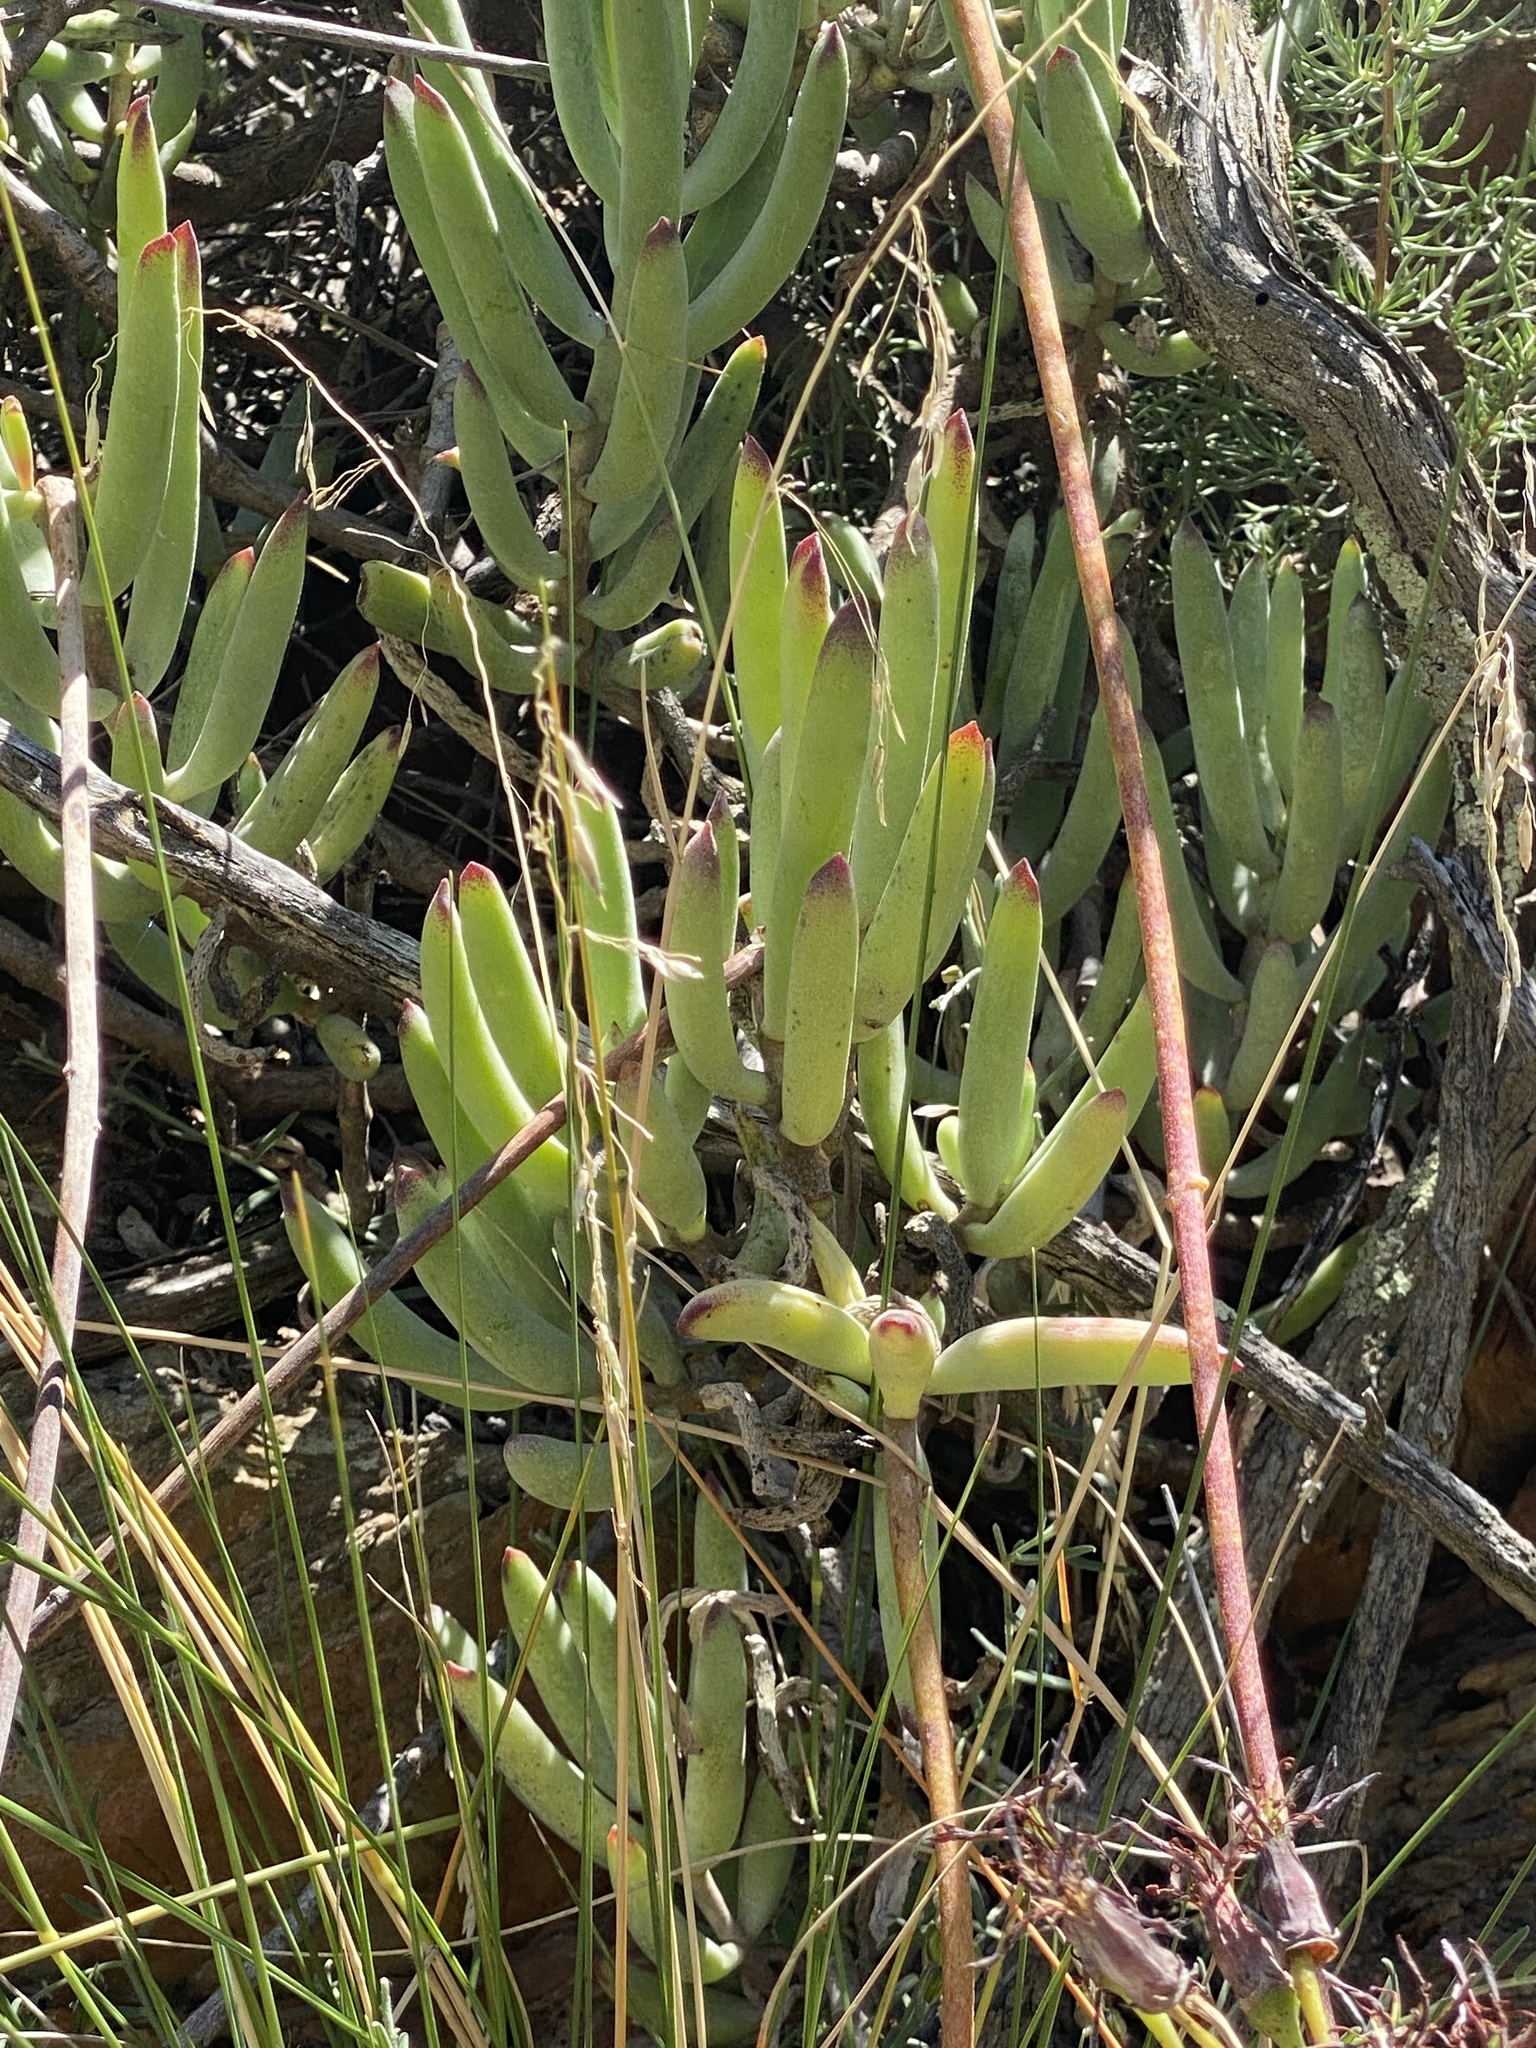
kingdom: Plantae
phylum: Tracheophyta
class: Magnoliopsida
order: Saxifragales
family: Crassulaceae
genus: Cotyledon
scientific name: Cotyledon orbiculata
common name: Pig's ear
